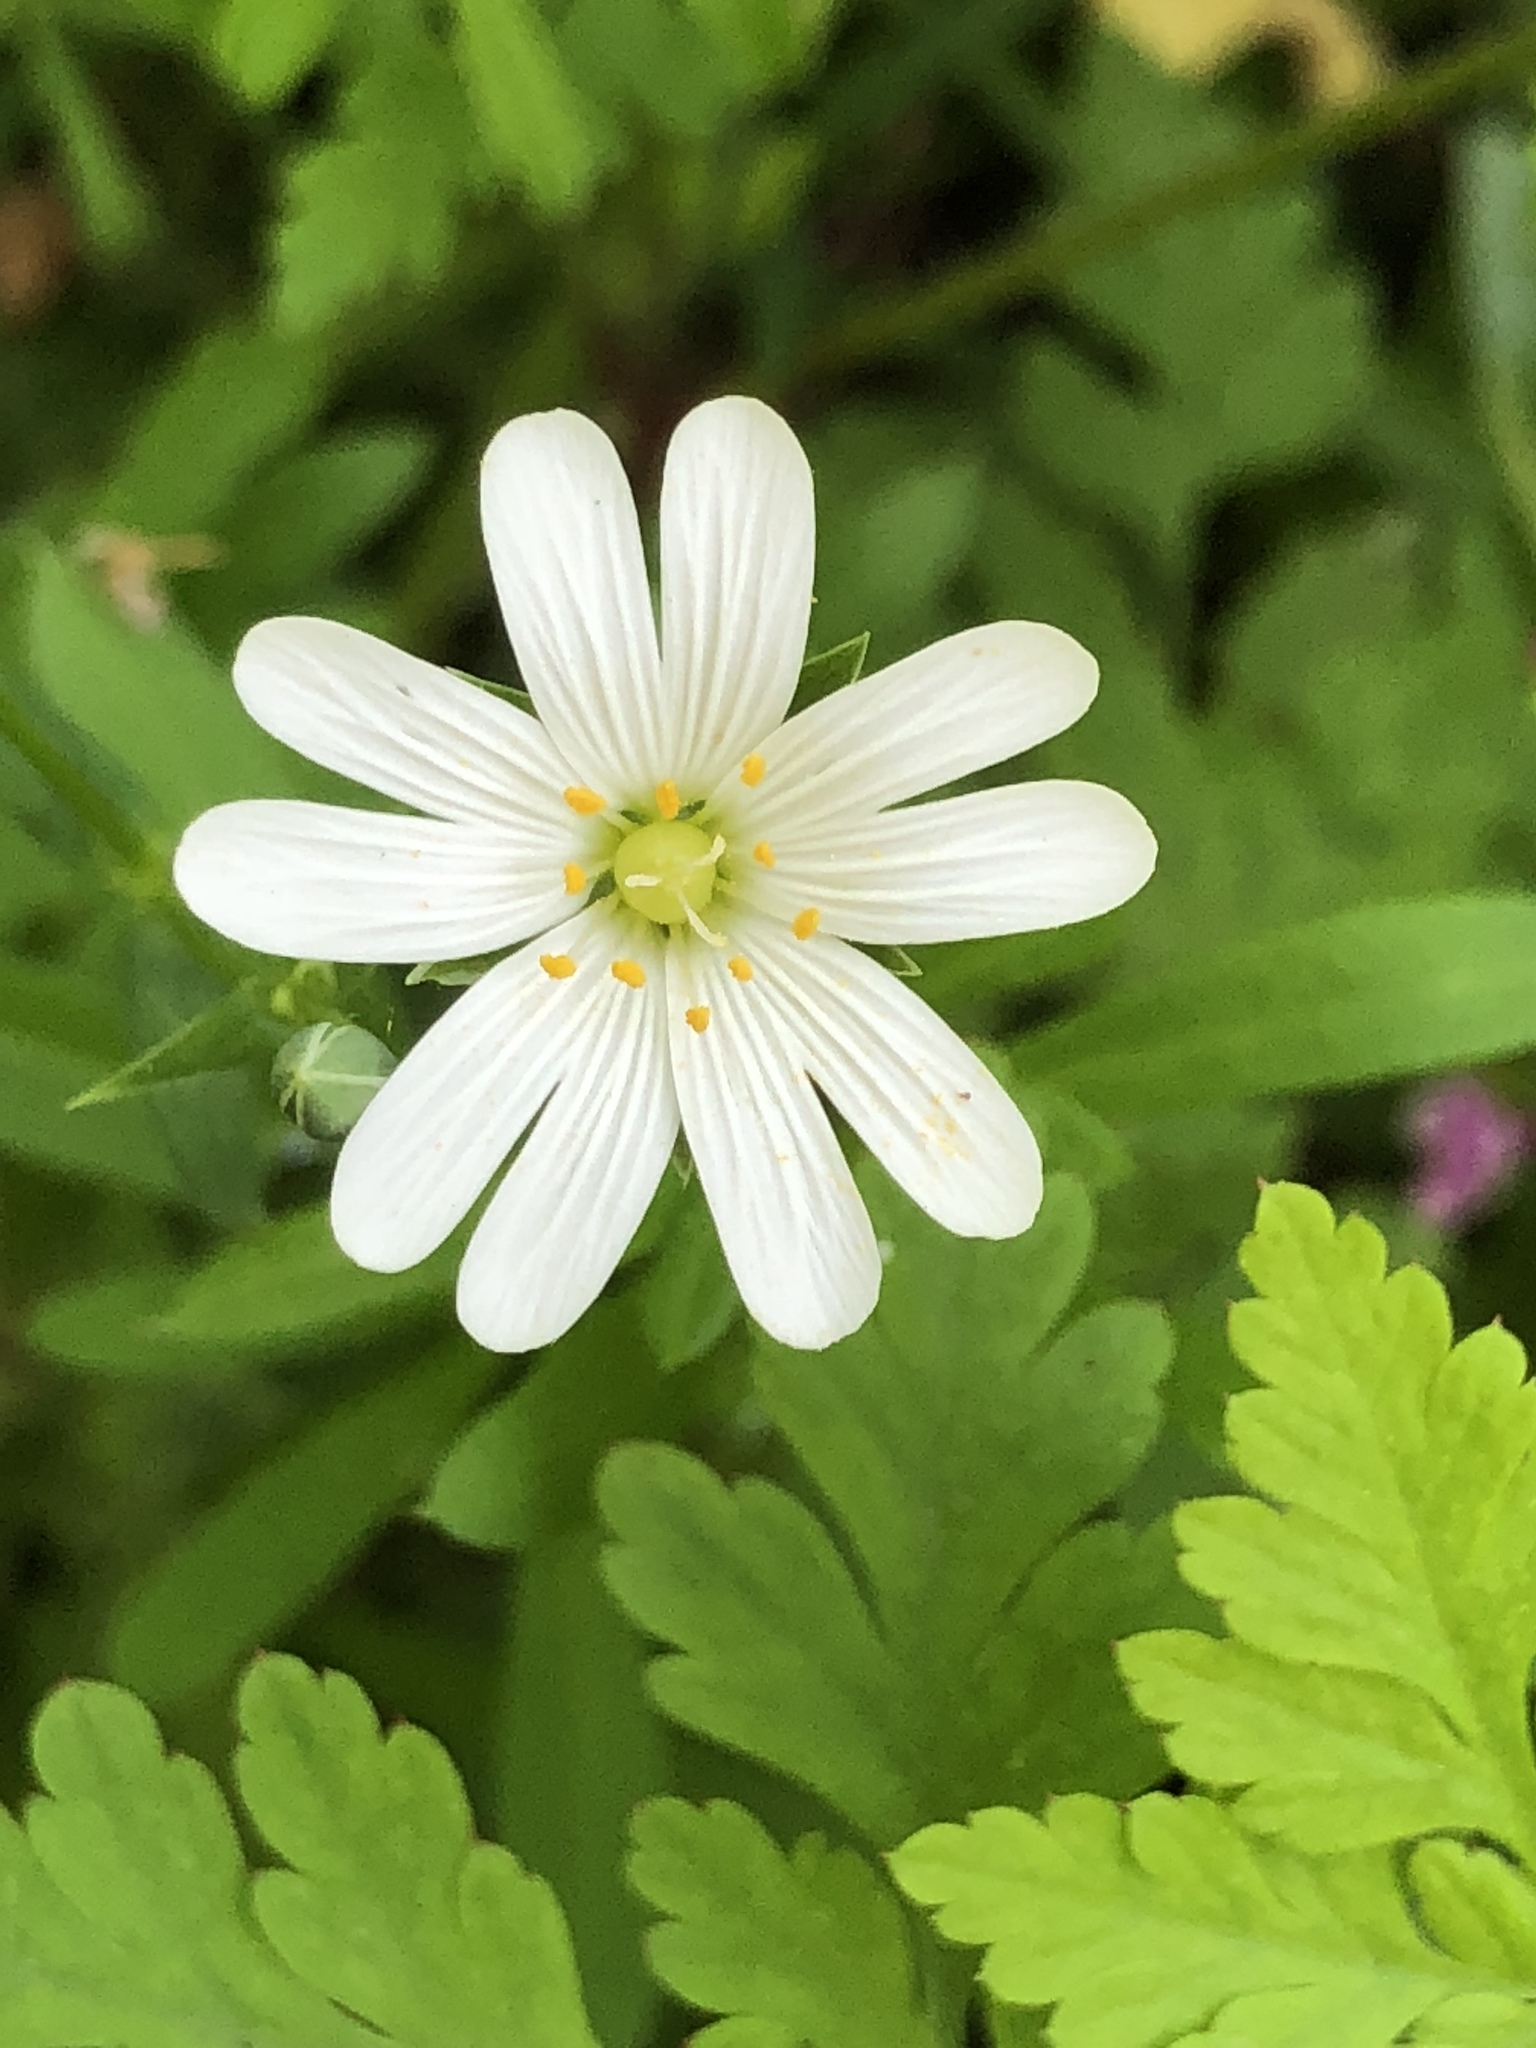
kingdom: Plantae
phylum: Tracheophyta
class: Magnoliopsida
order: Caryophyllales
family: Caryophyllaceae
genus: Rabelera
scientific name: Rabelera holostea
